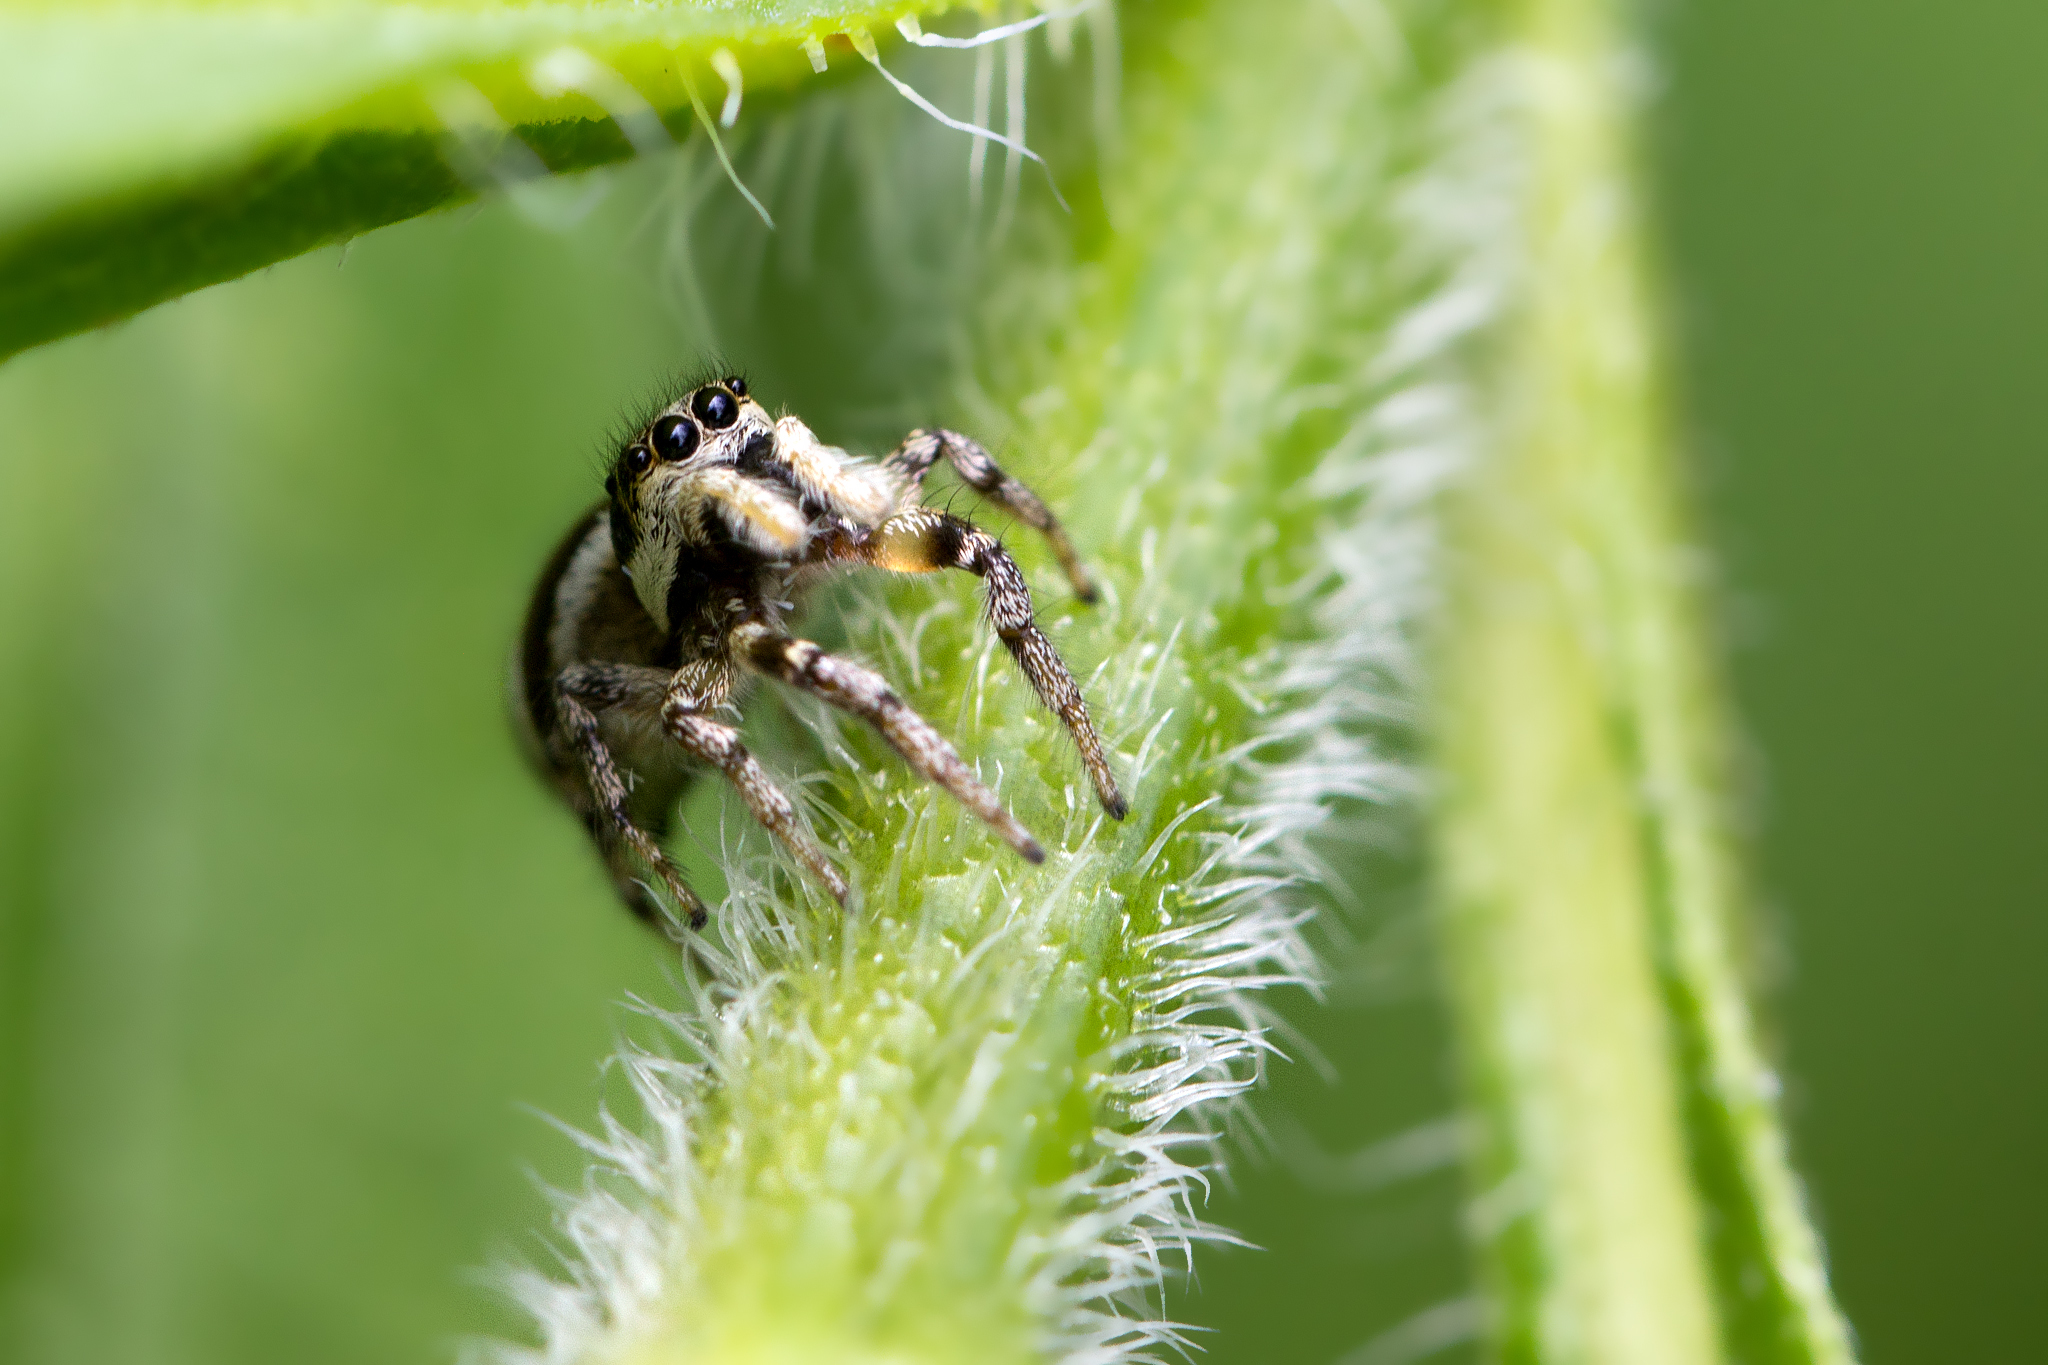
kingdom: Animalia
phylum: Arthropoda
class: Arachnida
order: Araneae
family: Salticidae
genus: Salticus
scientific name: Salticus scenicus
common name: Zebra jumper
